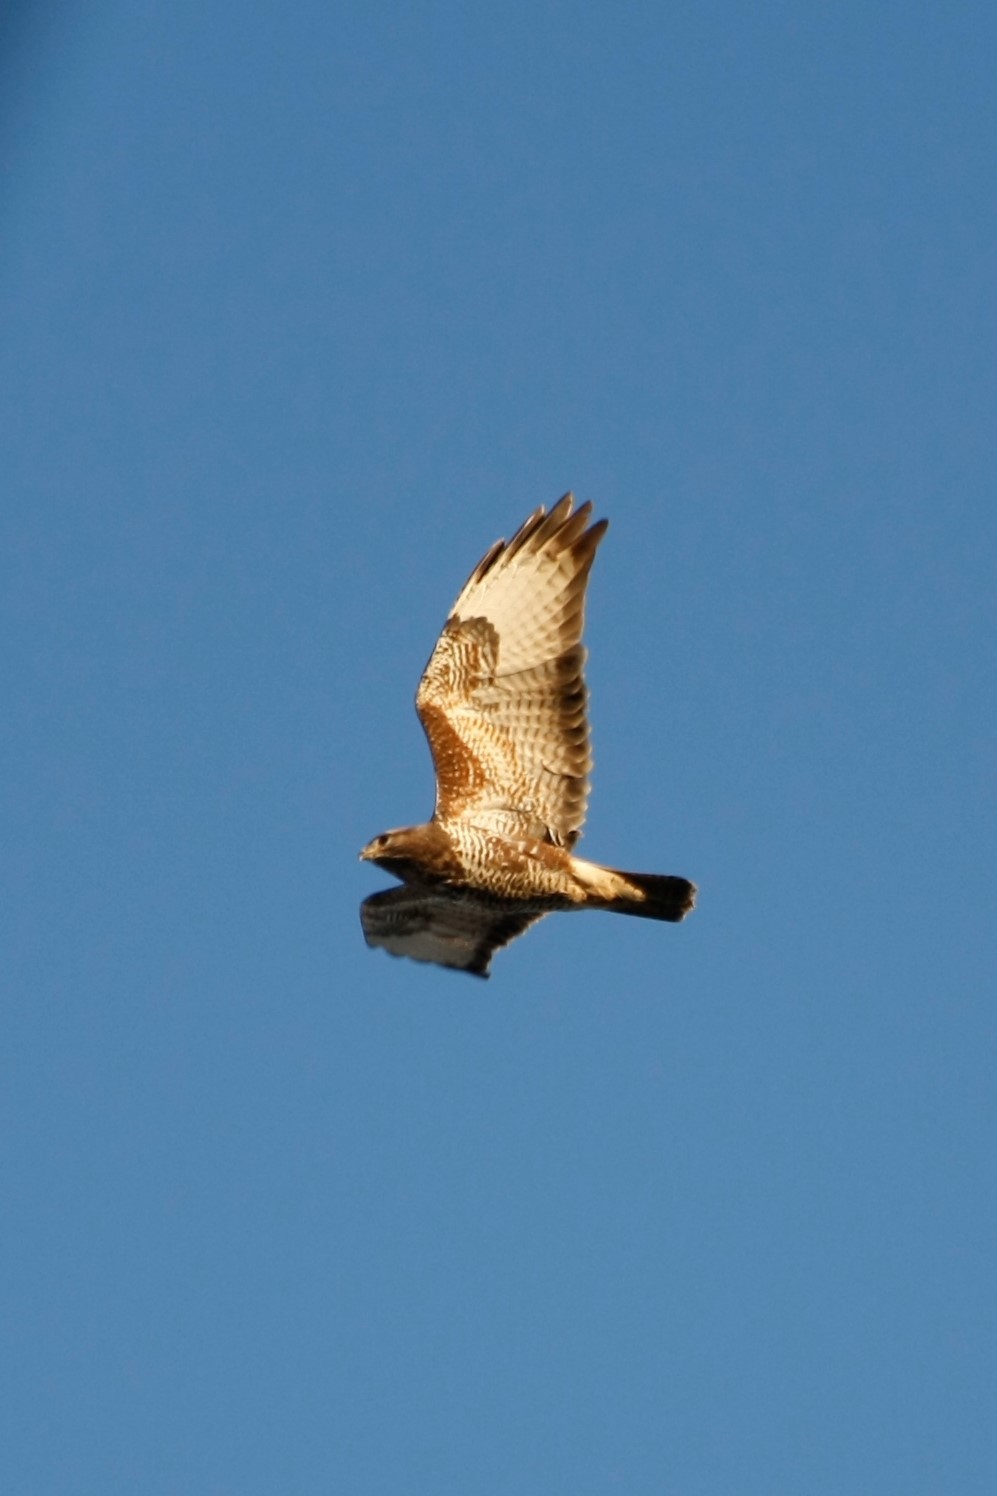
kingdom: Animalia
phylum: Chordata
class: Aves
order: Accipitriformes
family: Accipitridae
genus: Buteo
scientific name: Buteo buteo
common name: Common buzzard
